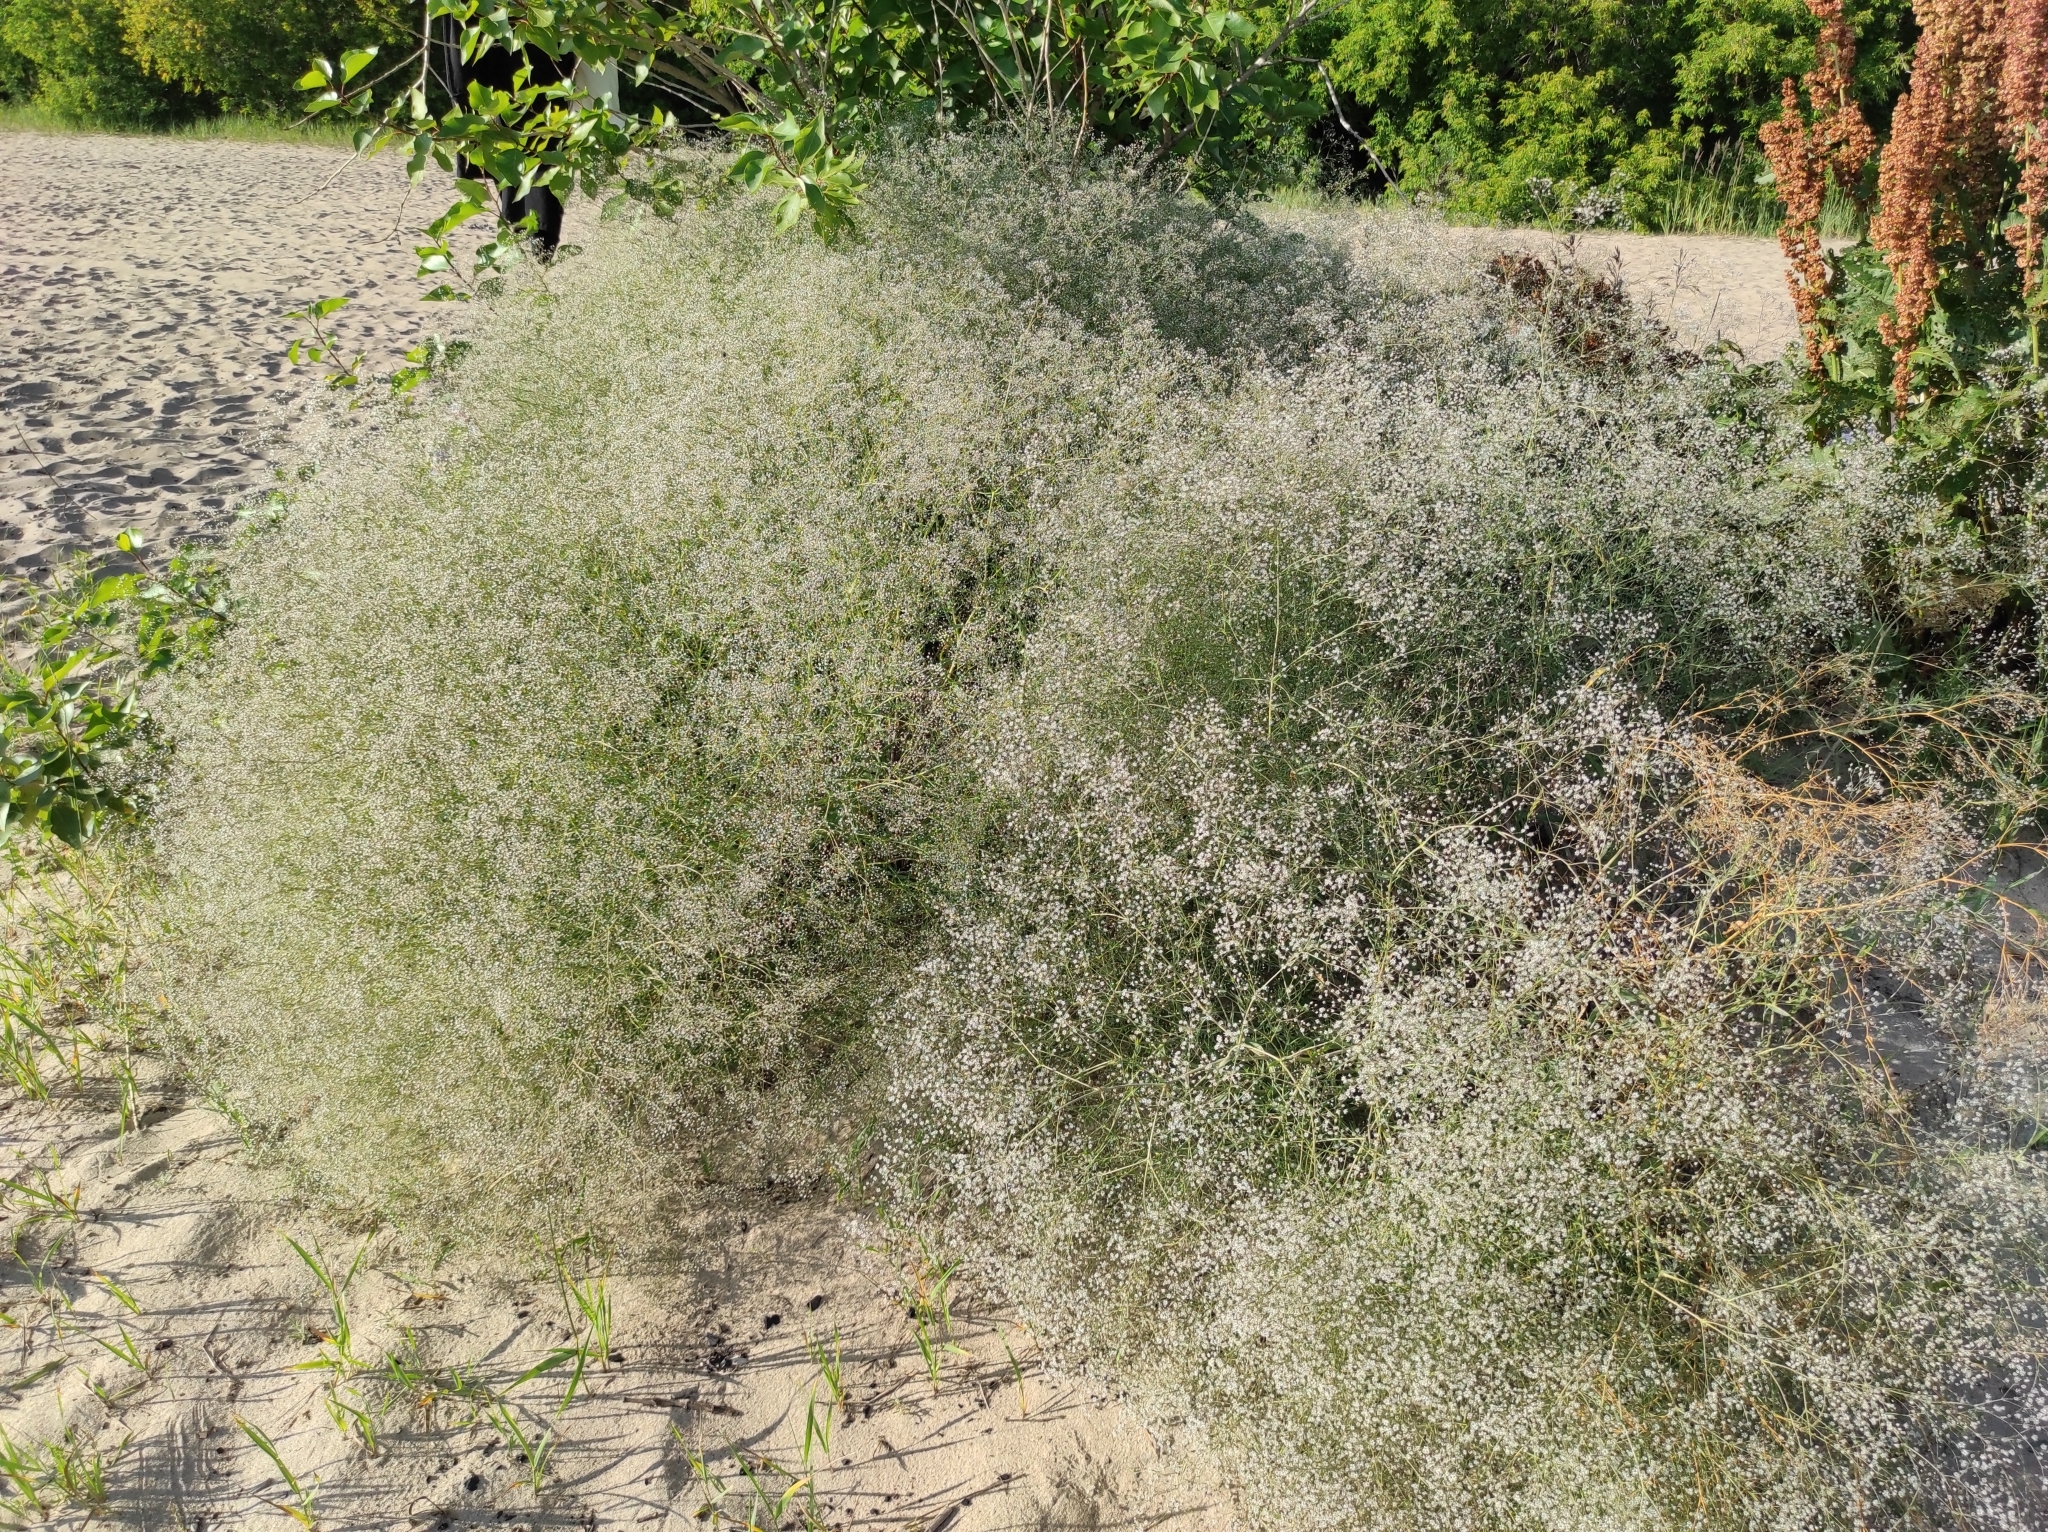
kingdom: Plantae
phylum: Tracheophyta
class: Magnoliopsida
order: Caryophyllales
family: Caryophyllaceae
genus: Gypsophila
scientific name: Gypsophila paniculata
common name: Baby's-breath
